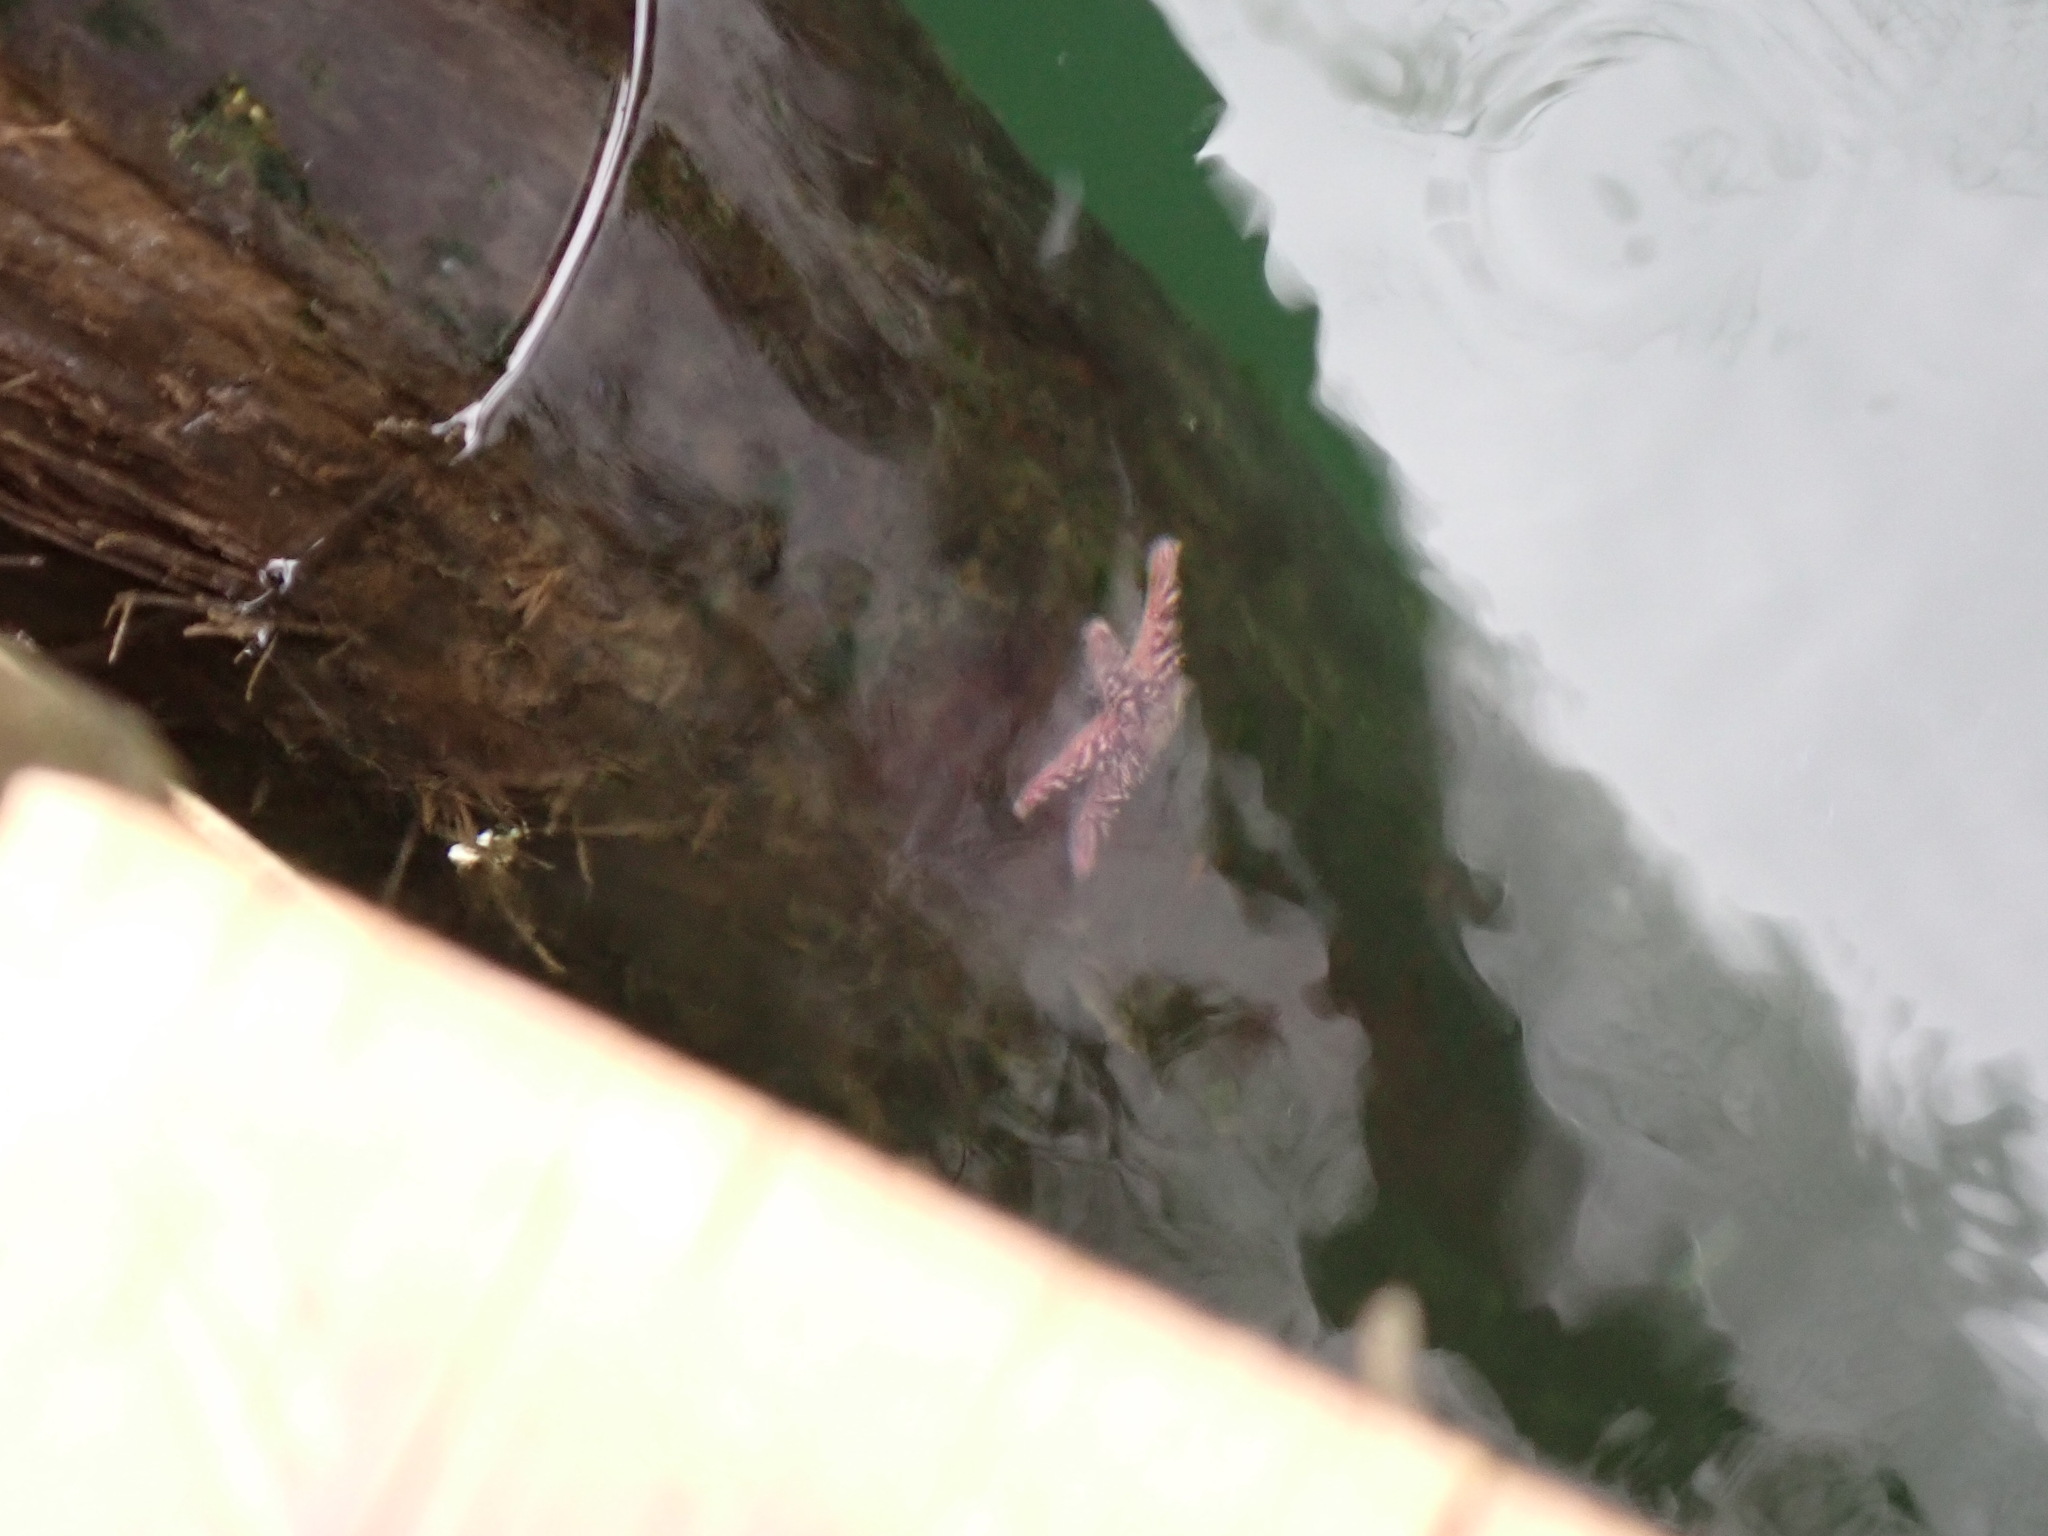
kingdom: Animalia
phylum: Echinodermata
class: Asteroidea
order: Forcipulatida
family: Asteriidae
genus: Pisaster
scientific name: Pisaster ochraceus
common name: Ochre stars
